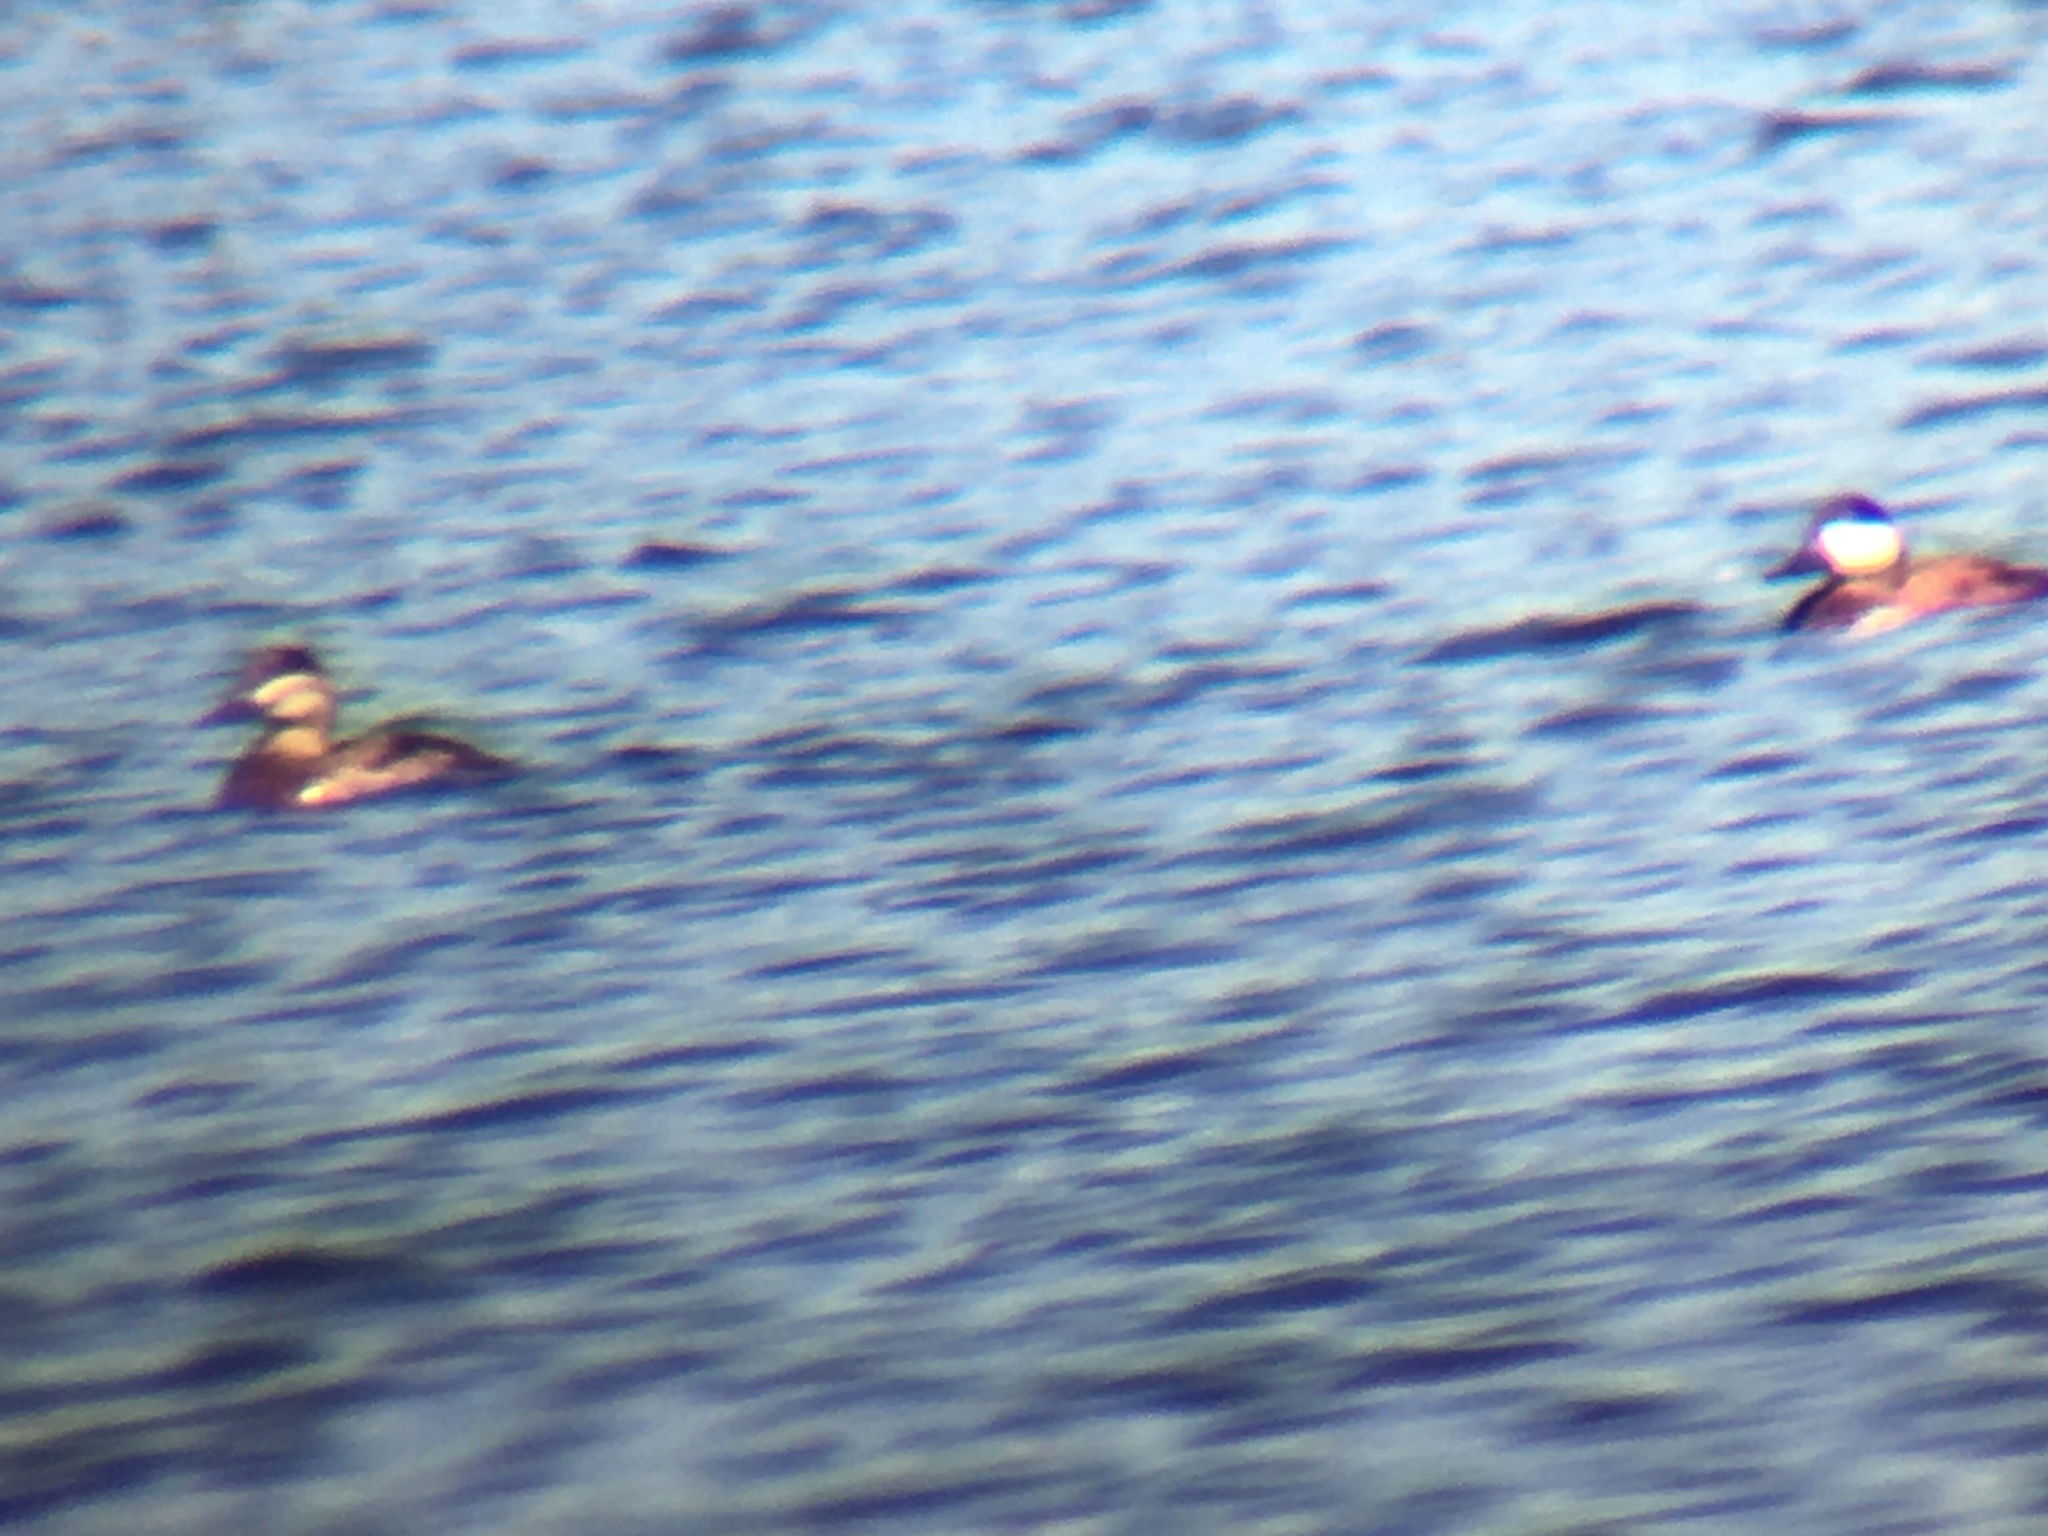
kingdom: Animalia
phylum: Chordata
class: Aves
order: Anseriformes
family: Anatidae
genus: Oxyura
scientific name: Oxyura jamaicensis
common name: Ruddy duck
